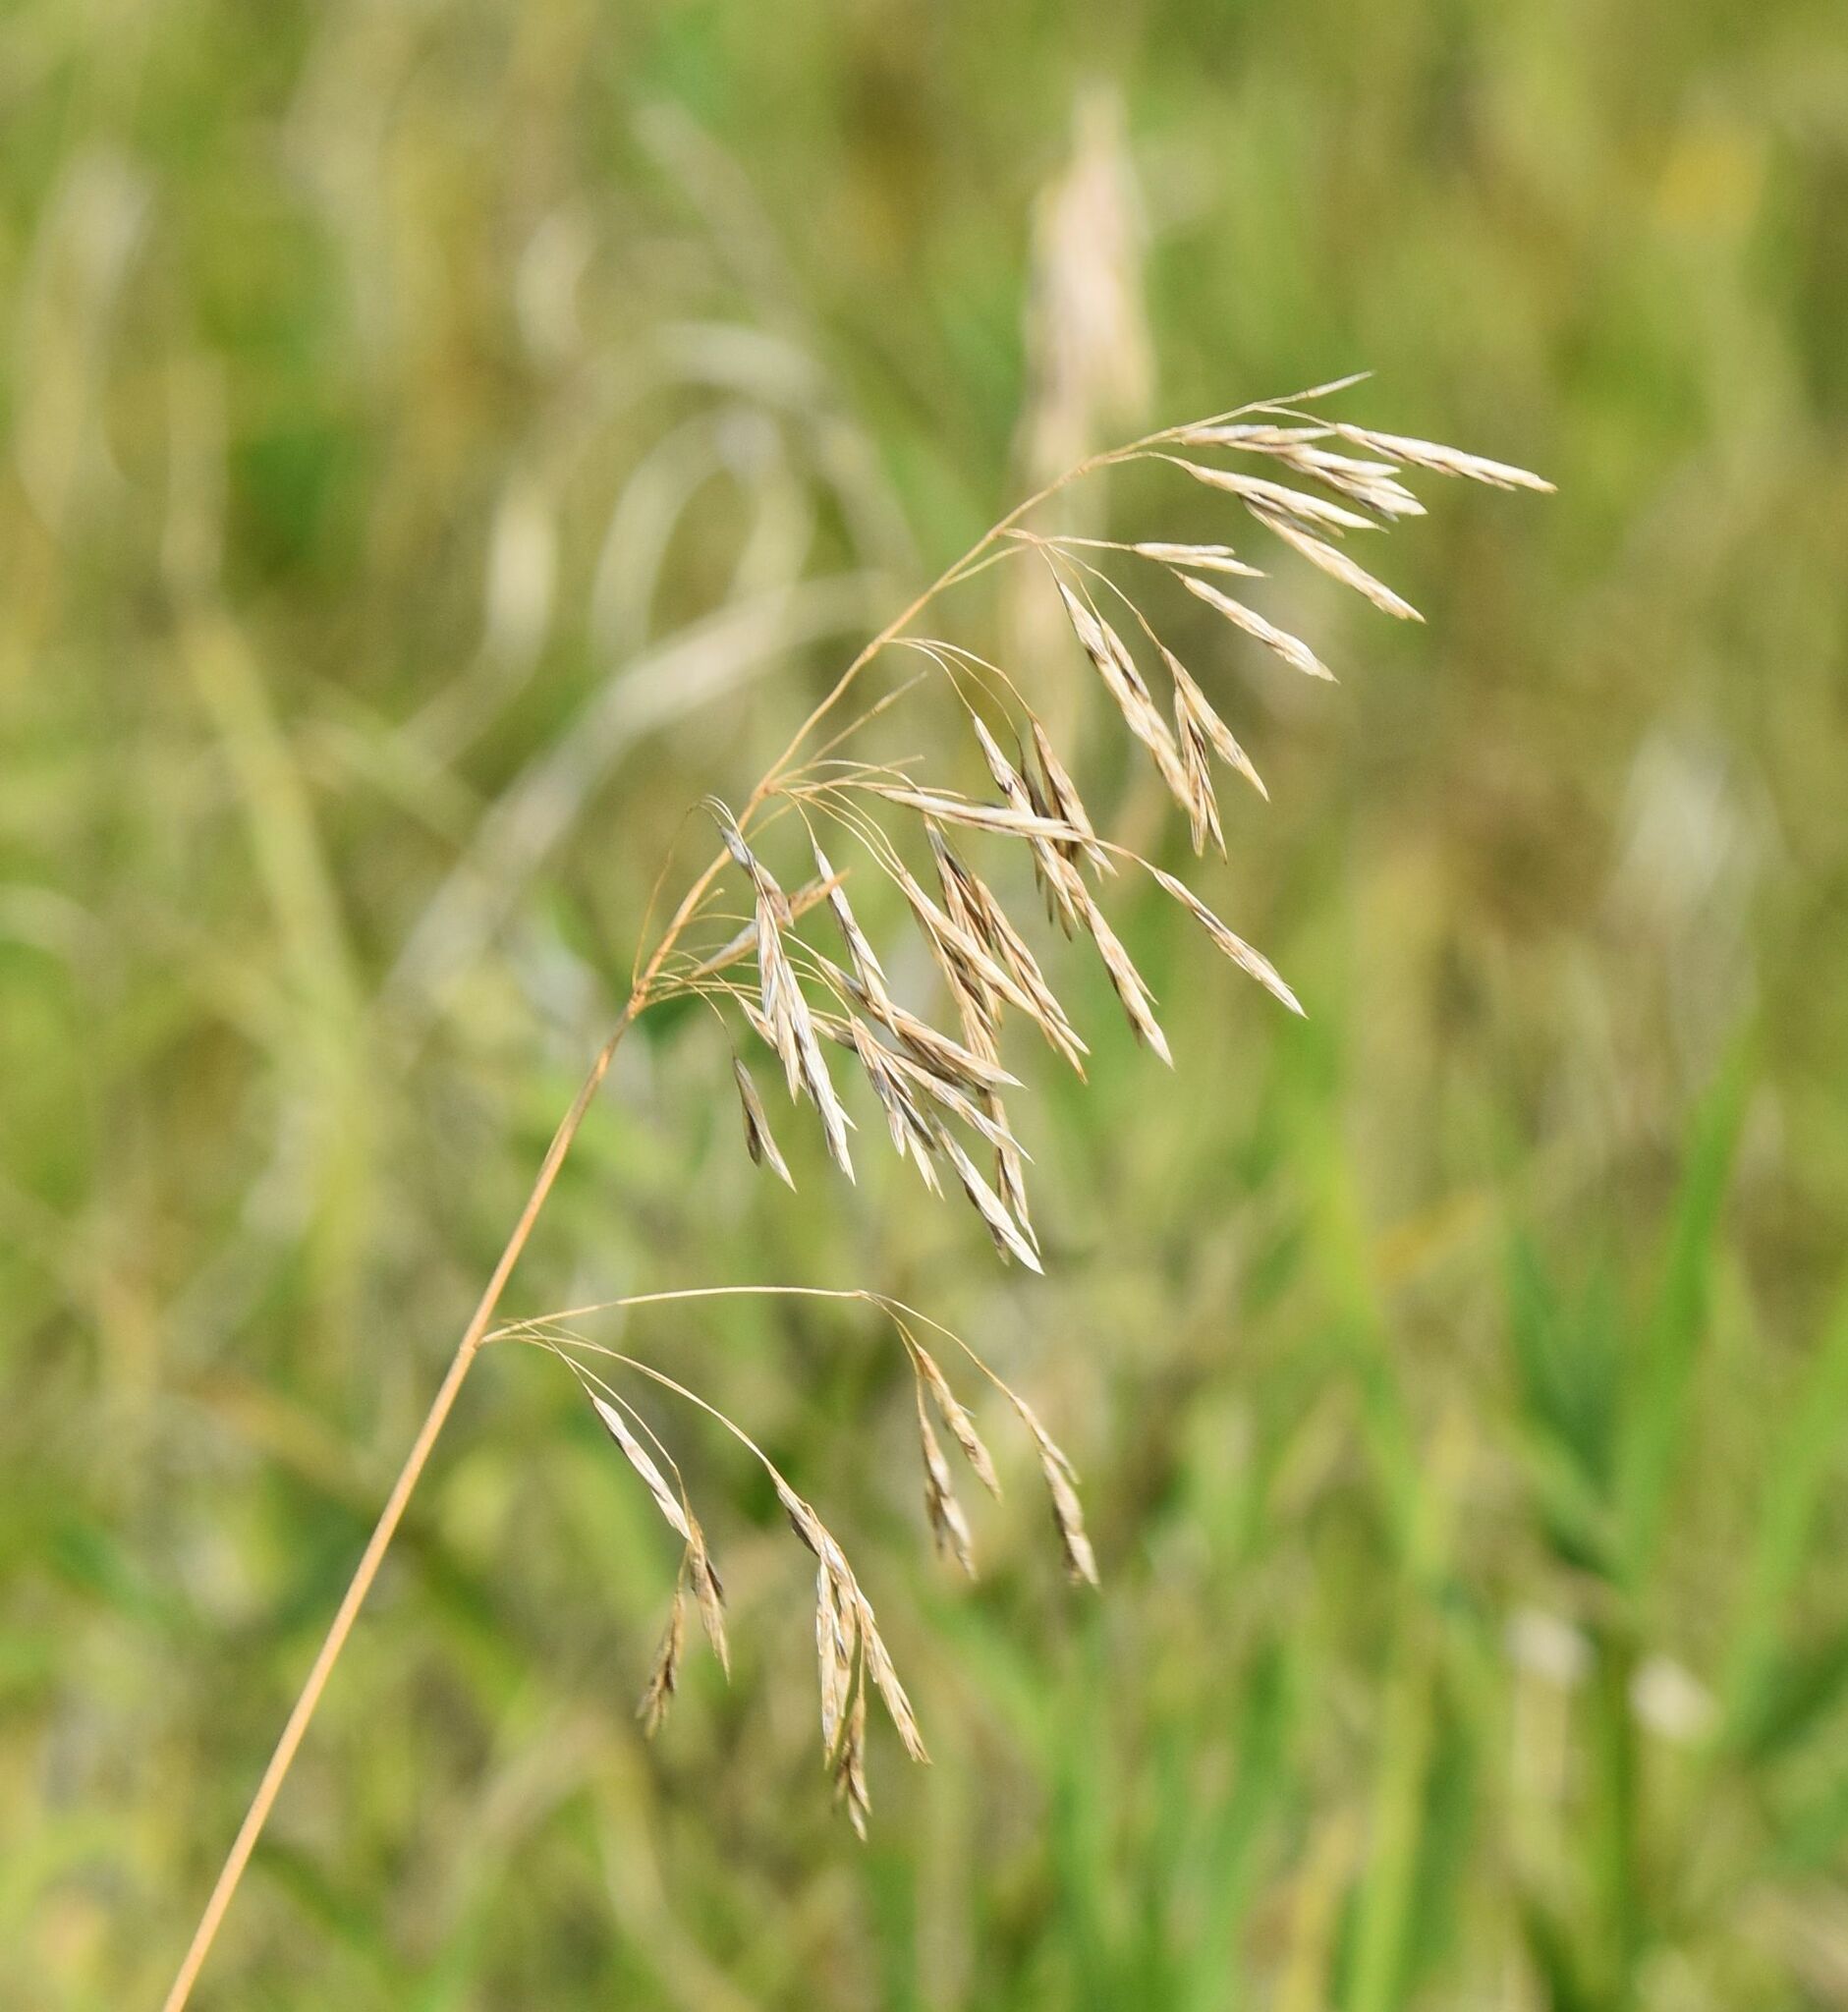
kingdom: Plantae
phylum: Tracheophyta
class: Liliopsida
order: Poales
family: Poaceae
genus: Bromus
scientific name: Bromus inermis
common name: Smooth brome
